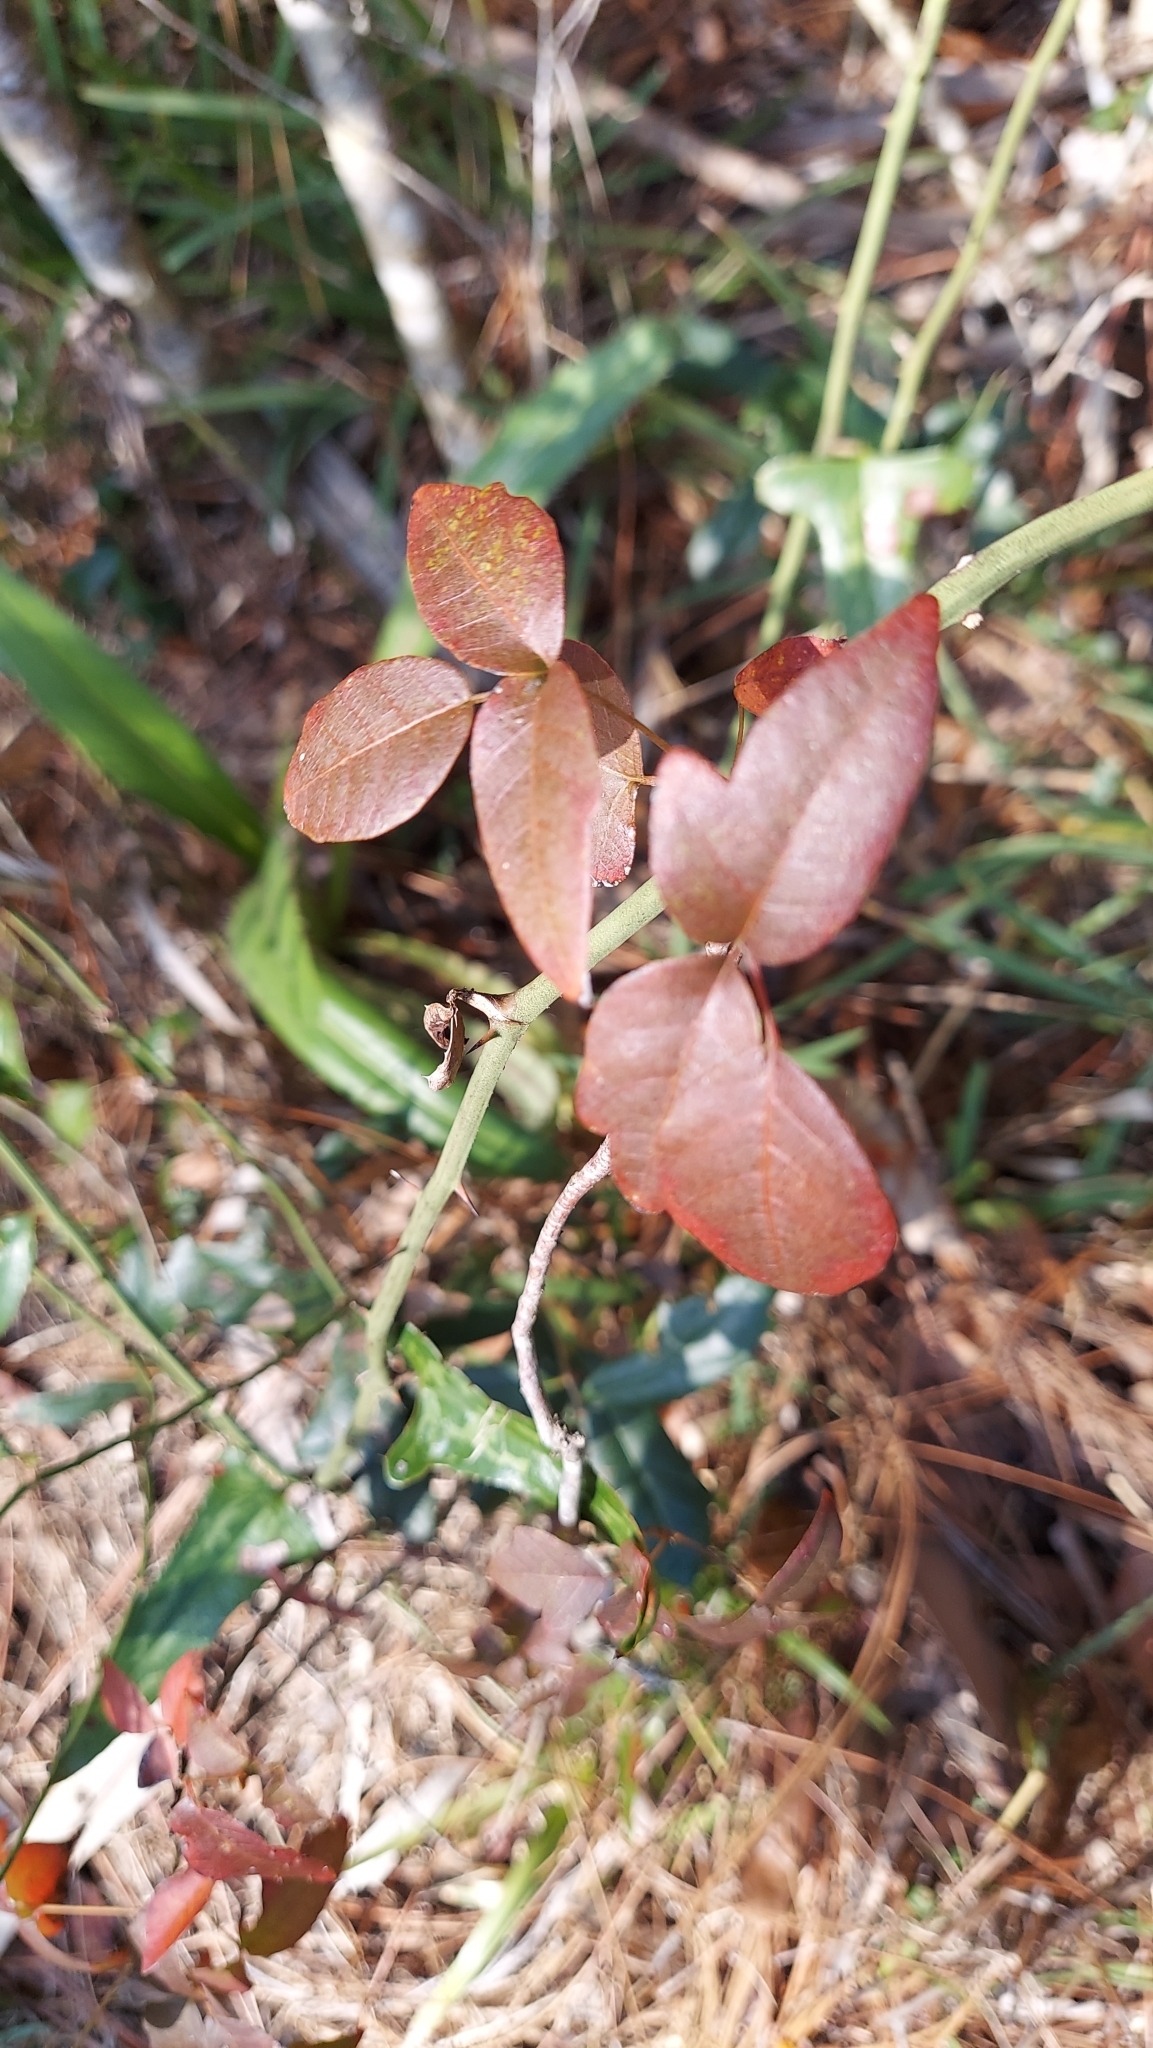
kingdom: Plantae
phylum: Tracheophyta
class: Magnoliopsida
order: Sapindales
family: Anacardiaceae
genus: Toxicodendron
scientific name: Toxicodendron radicans
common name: Poison ivy
